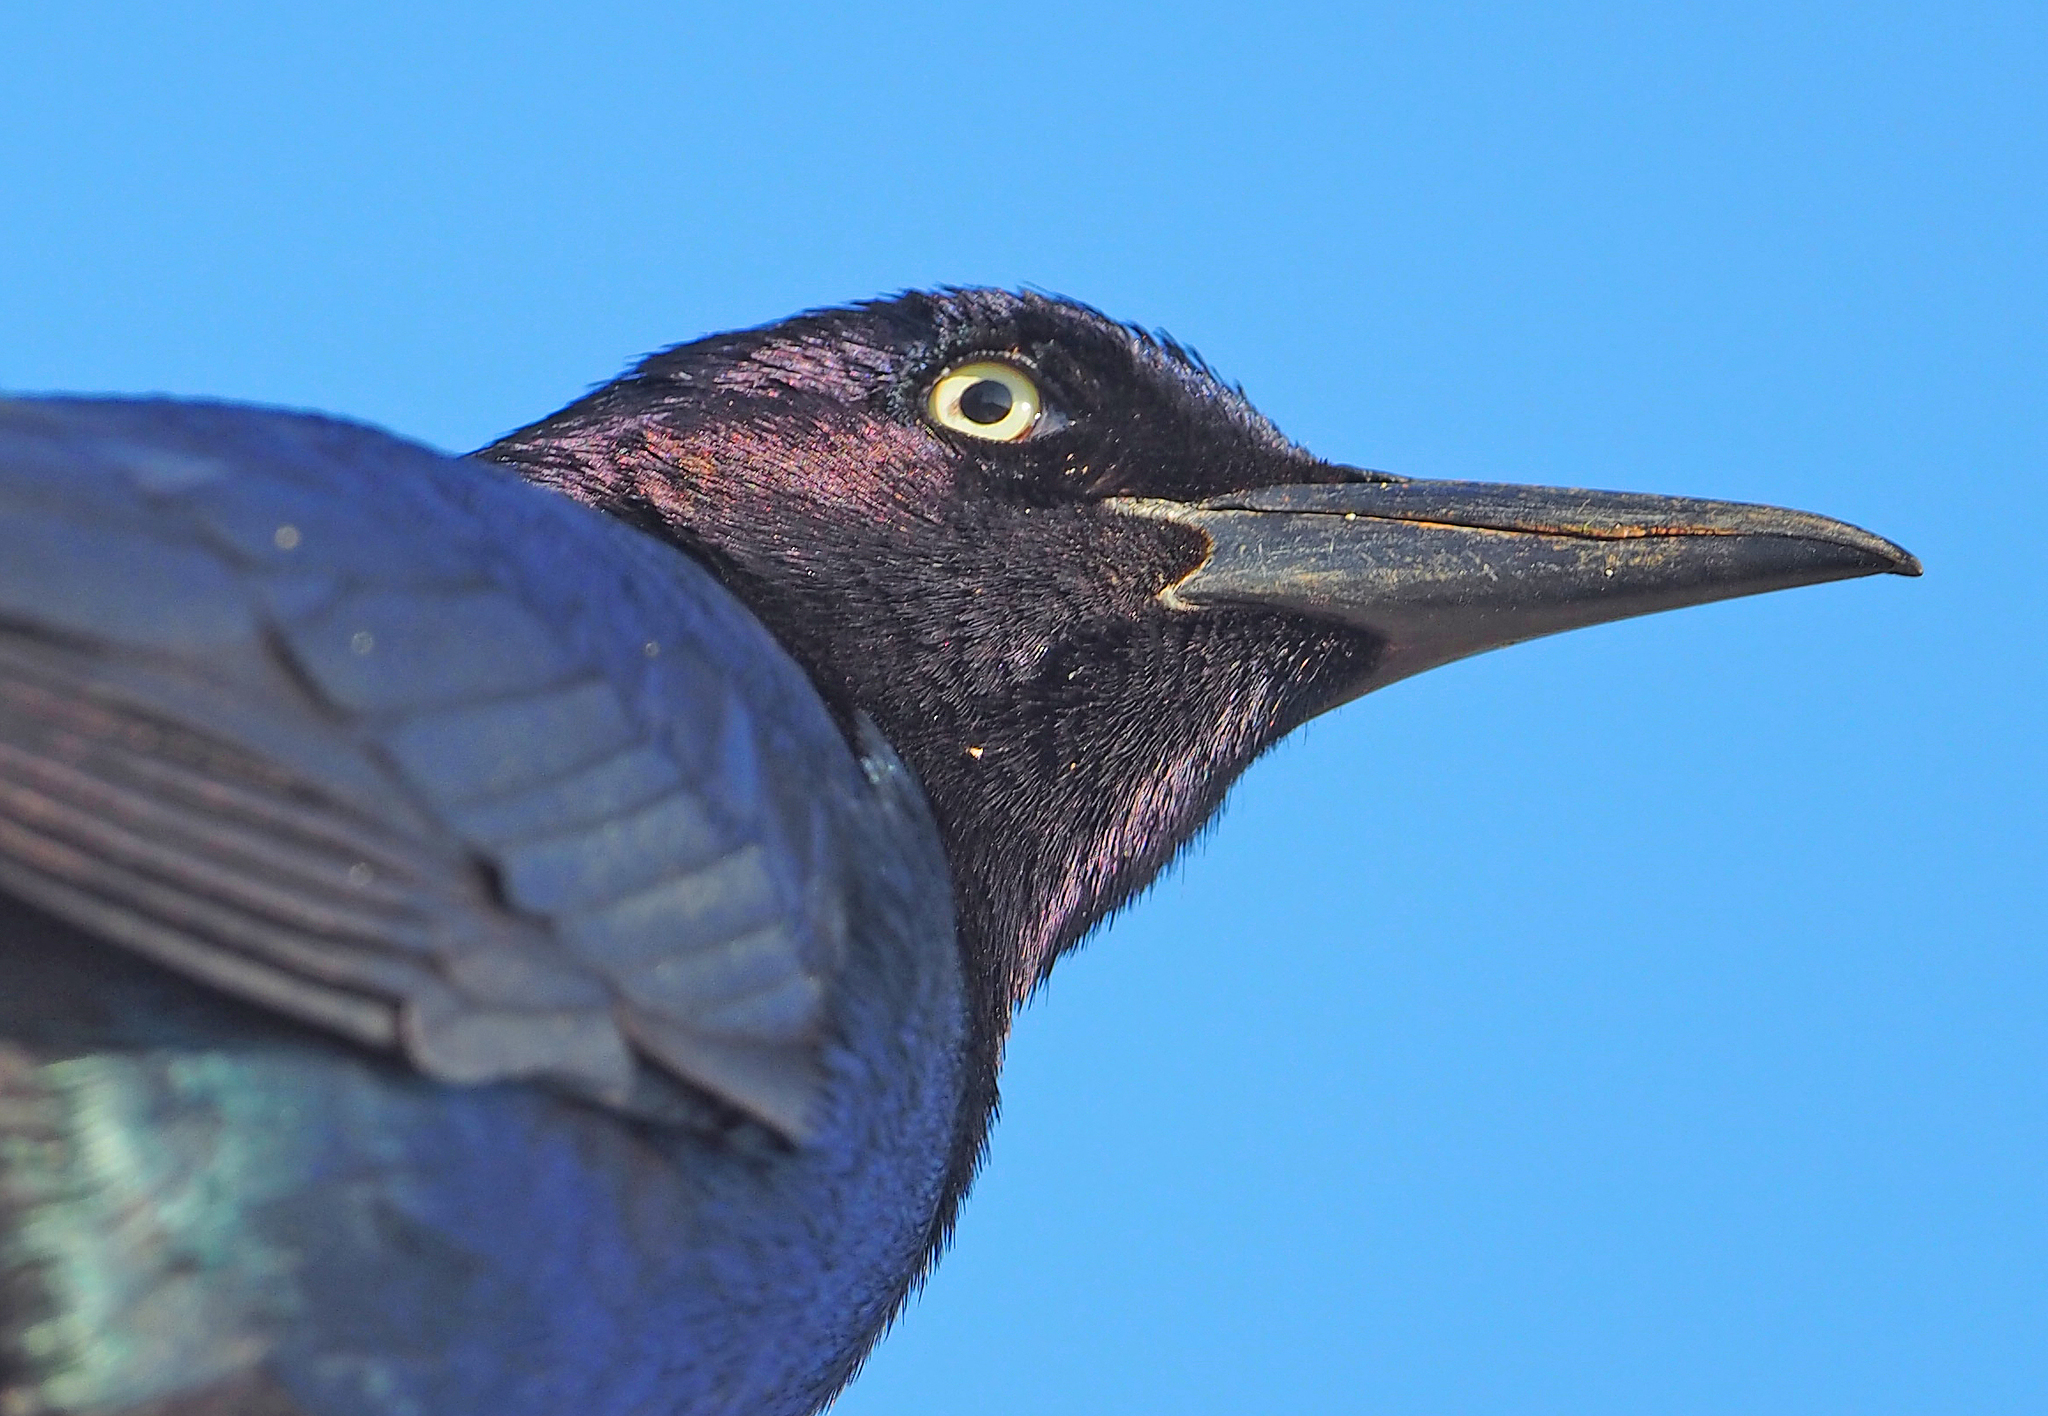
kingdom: Animalia
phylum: Chordata
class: Aves
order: Passeriformes
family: Icteridae
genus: Quiscalus
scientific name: Quiscalus major
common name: Boat-tailed grackle
